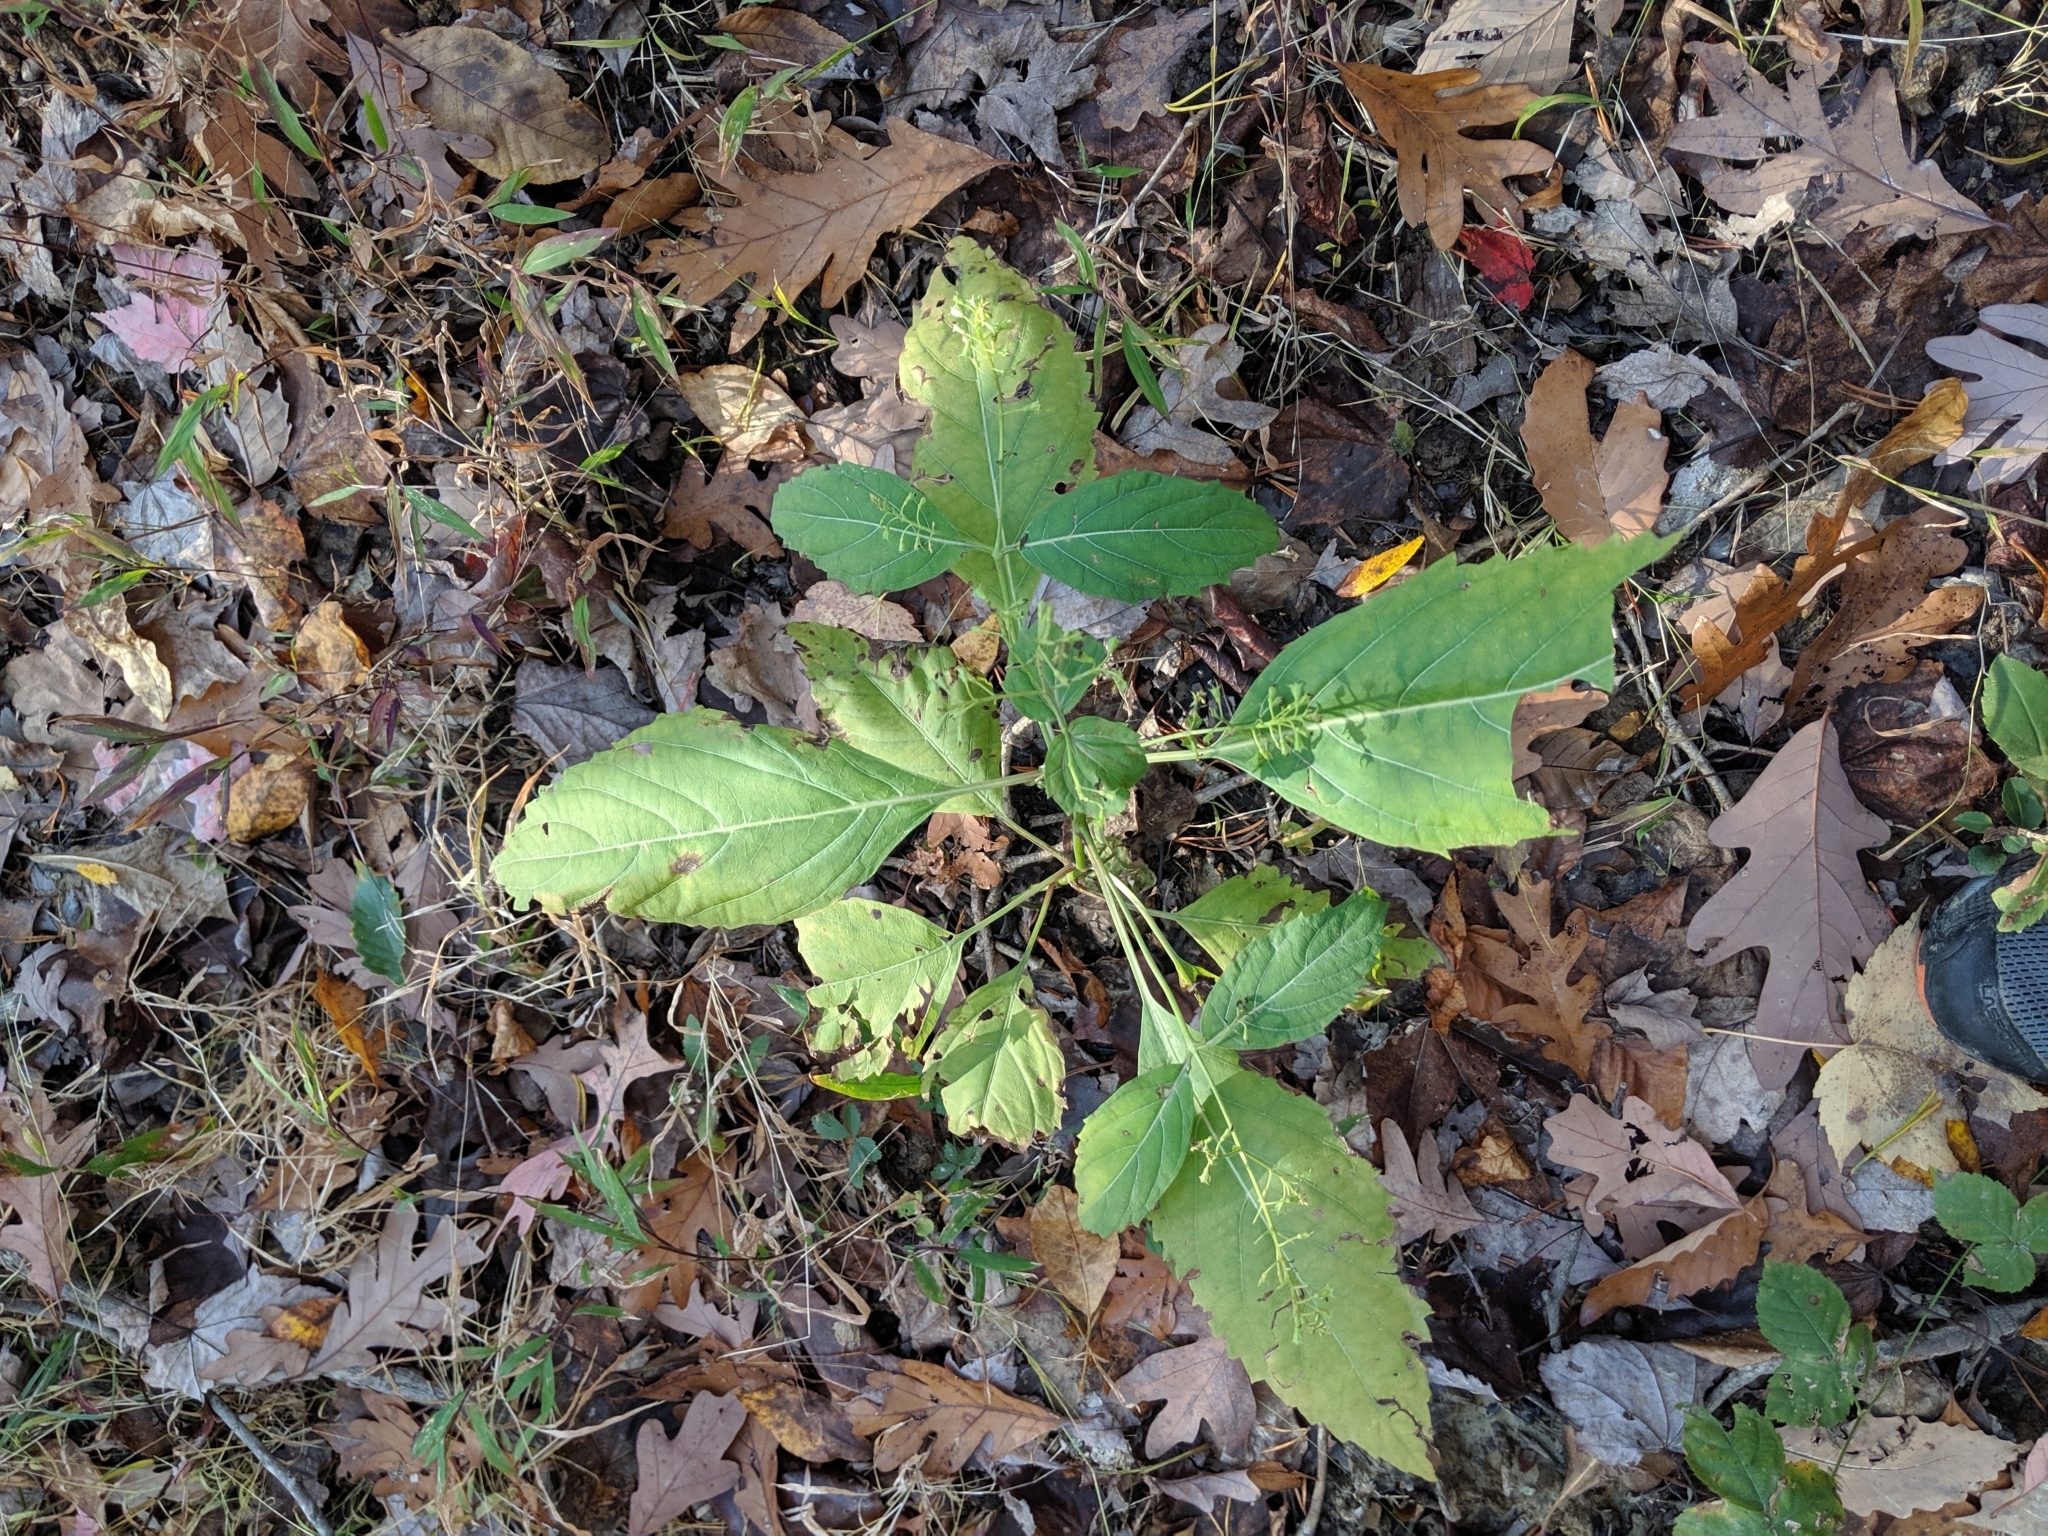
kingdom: Plantae
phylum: Tracheophyta
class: Magnoliopsida
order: Lamiales
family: Lamiaceae
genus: Collinsonia
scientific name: Collinsonia canadensis
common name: Northern horsebalm
